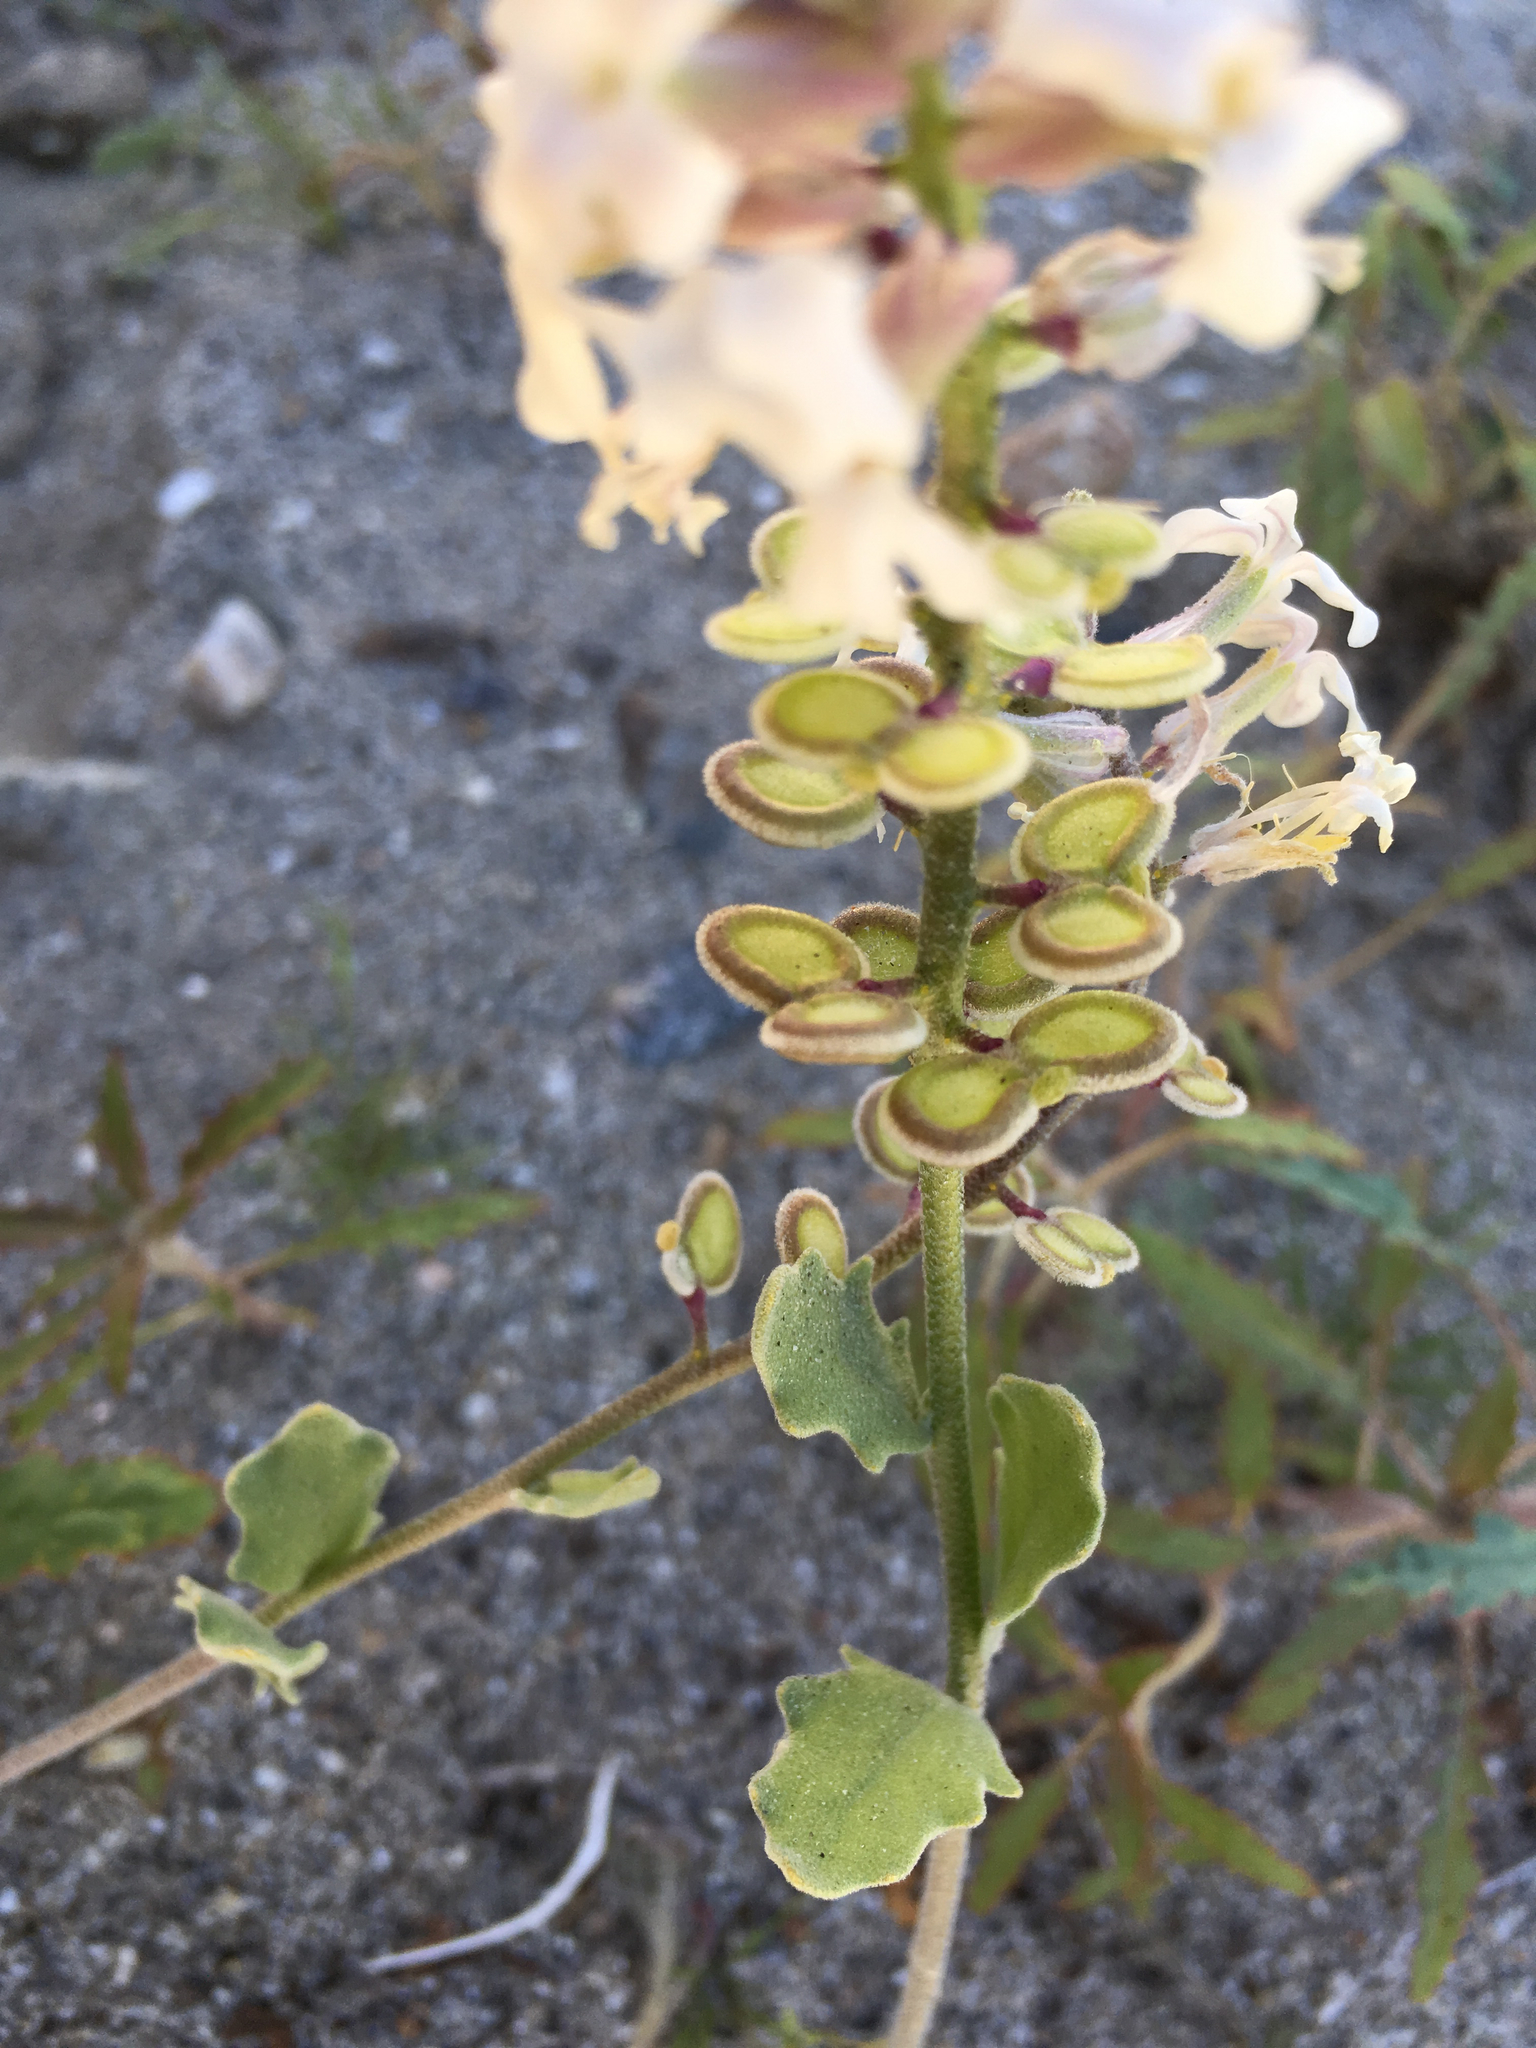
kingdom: Plantae
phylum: Tracheophyta
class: Magnoliopsida
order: Brassicales
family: Brassicaceae
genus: Dithyrea
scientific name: Dithyrea californica
